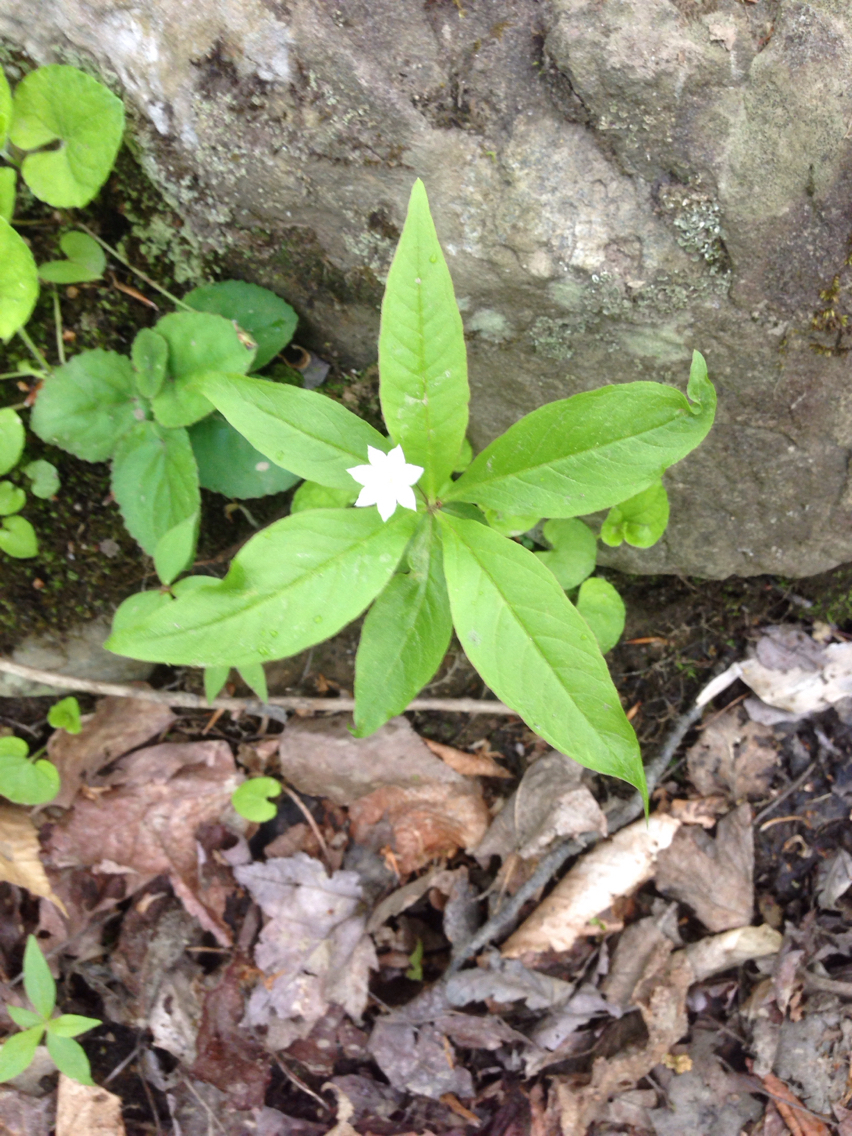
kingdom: Plantae
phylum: Tracheophyta
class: Magnoliopsida
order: Ericales
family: Primulaceae
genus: Lysimachia
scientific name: Lysimachia borealis
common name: American starflower
